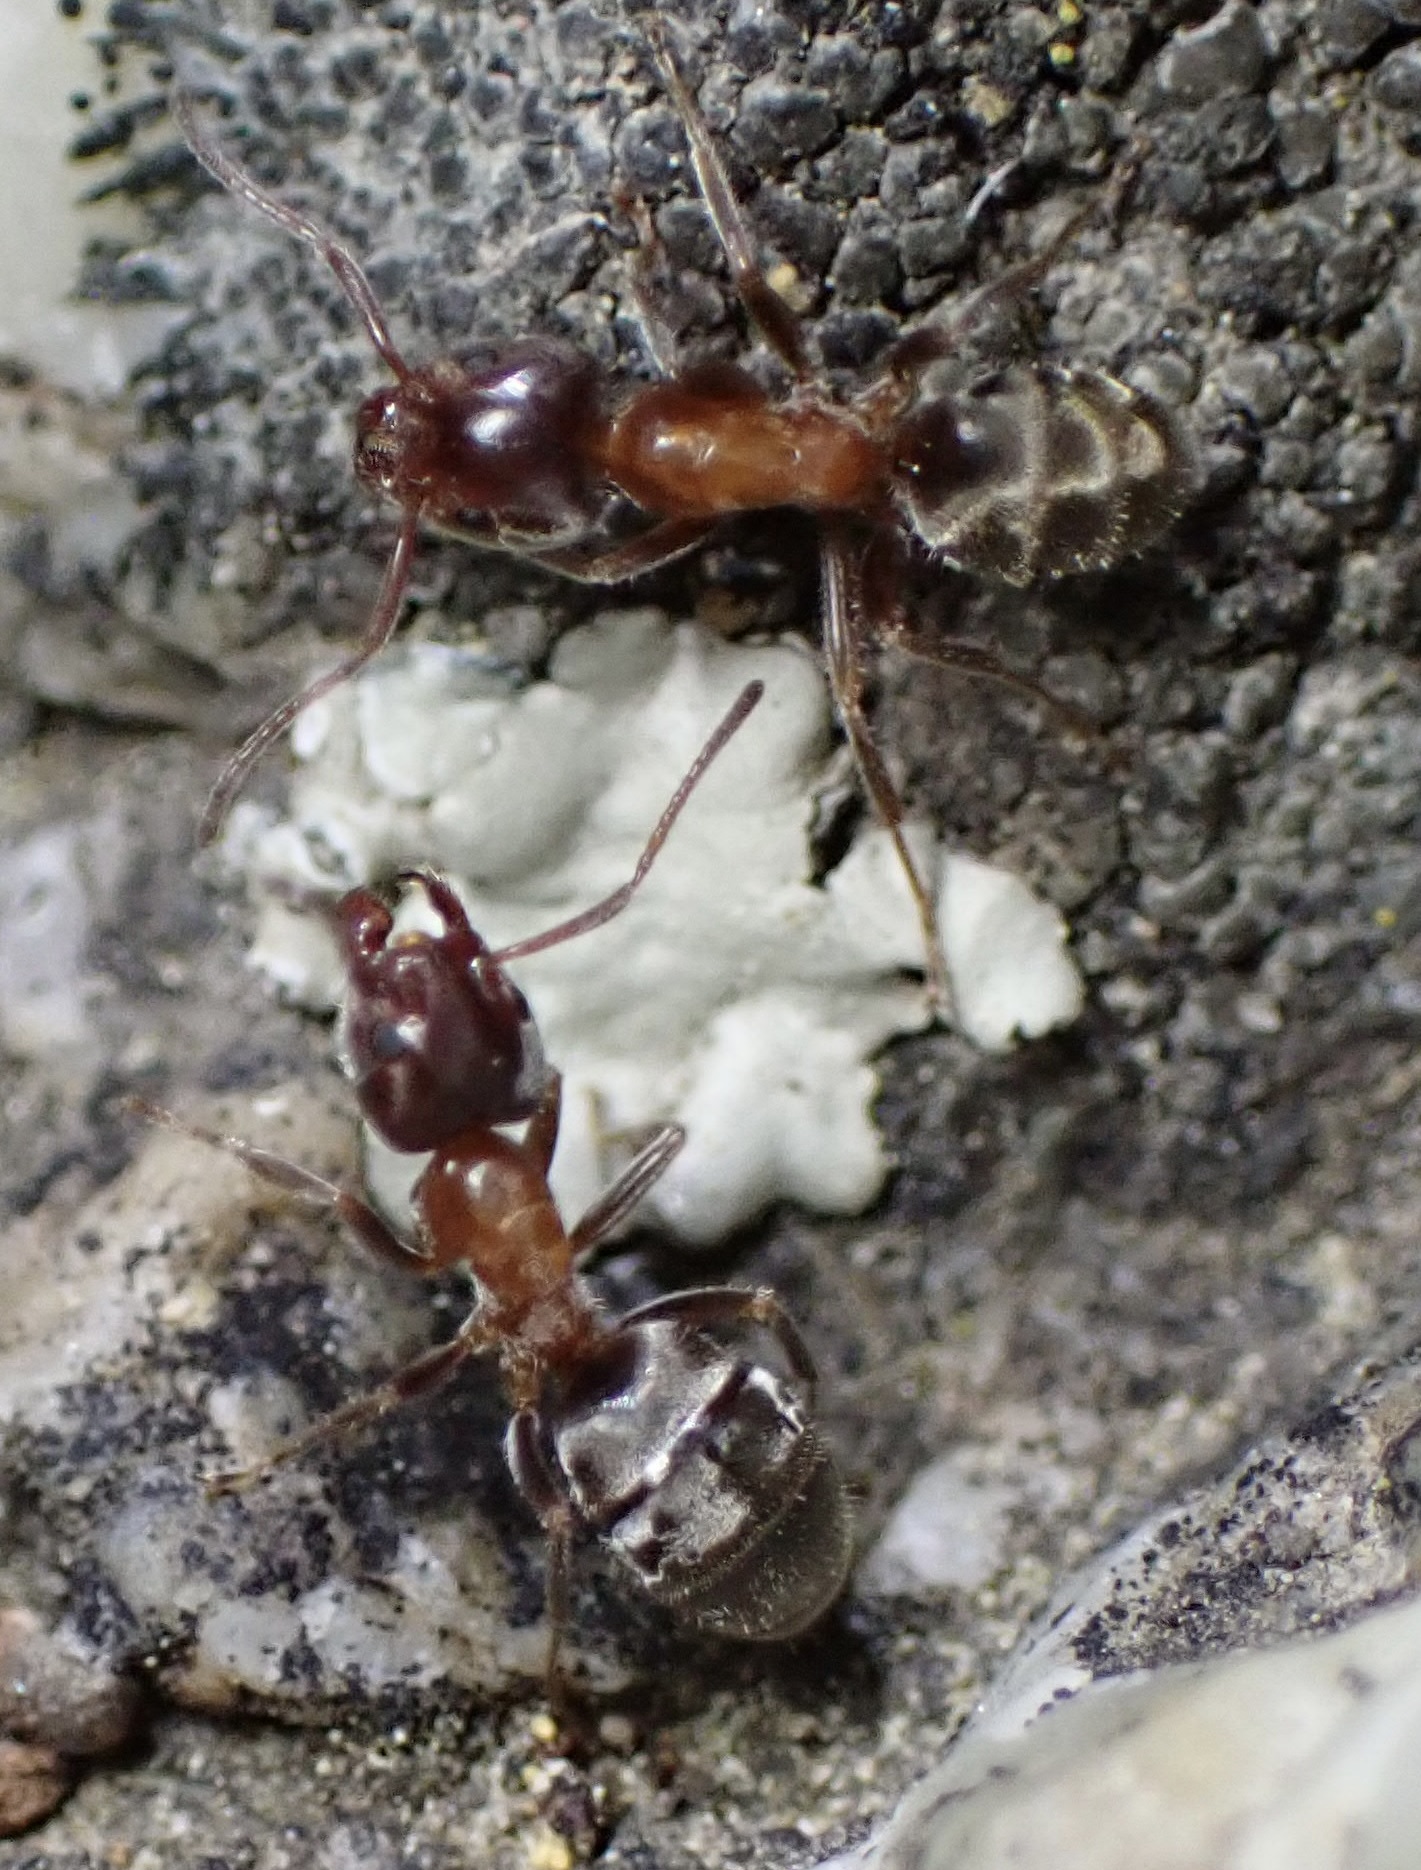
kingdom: Animalia
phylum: Arthropoda
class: Insecta
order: Hymenoptera
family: Formicidae
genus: Liometopum
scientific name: Liometopum occidentale
